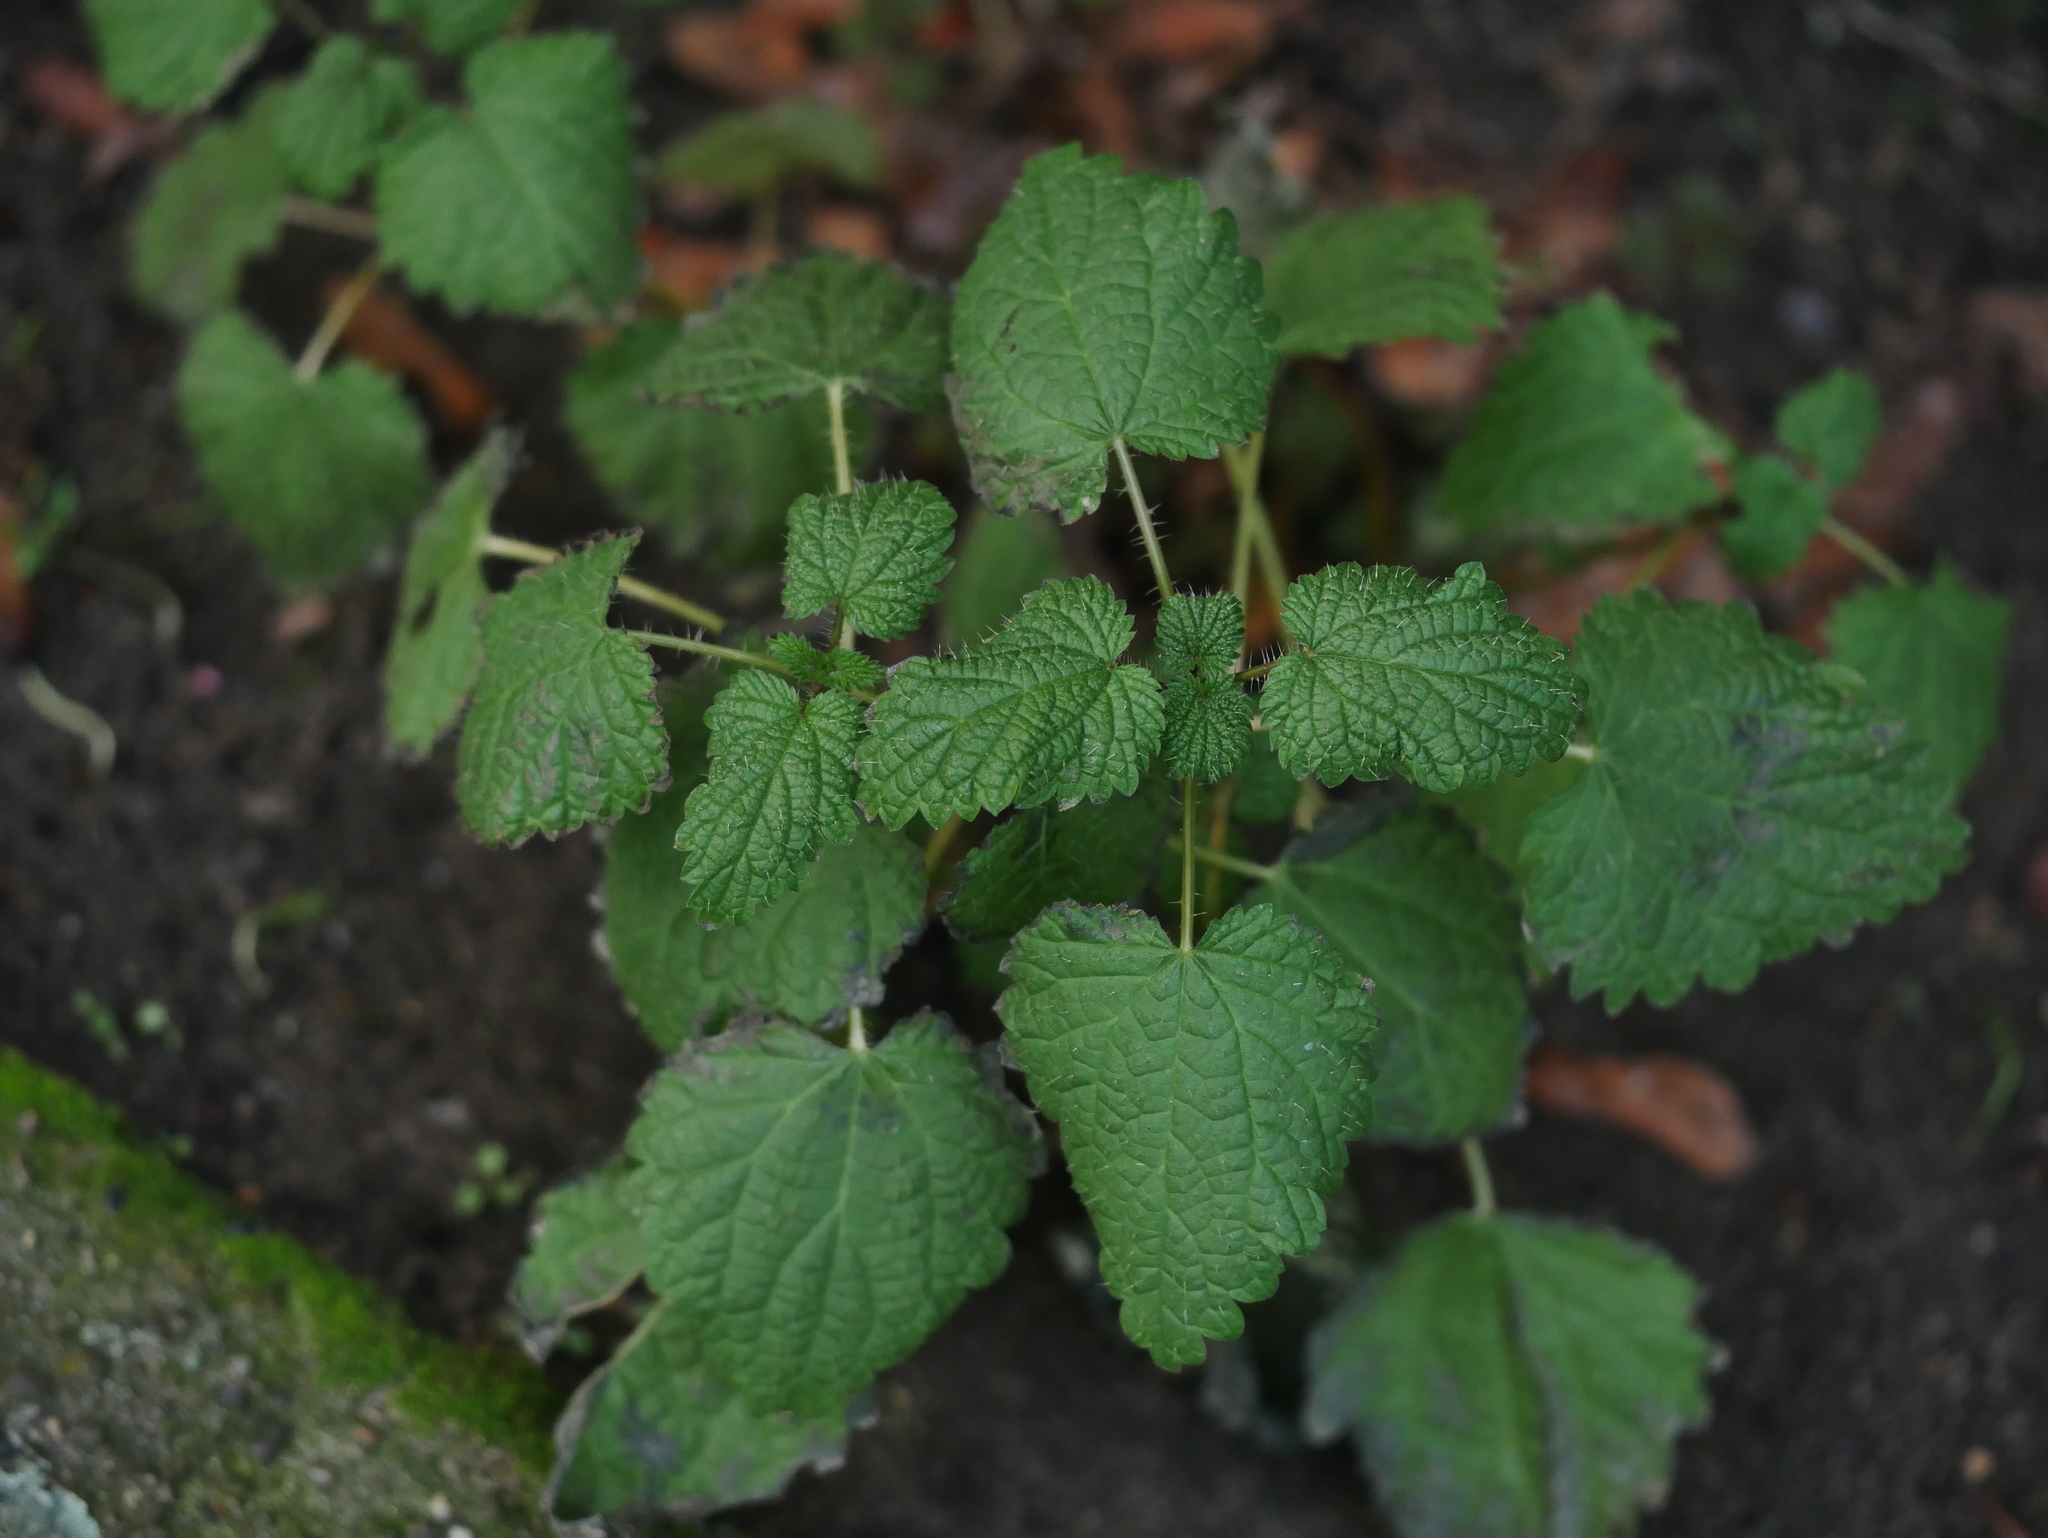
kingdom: Plantae
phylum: Tracheophyta
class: Magnoliopsida
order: Rosales
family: Urticaceae
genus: Urtica
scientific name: Urtica dioica
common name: Common nettle
